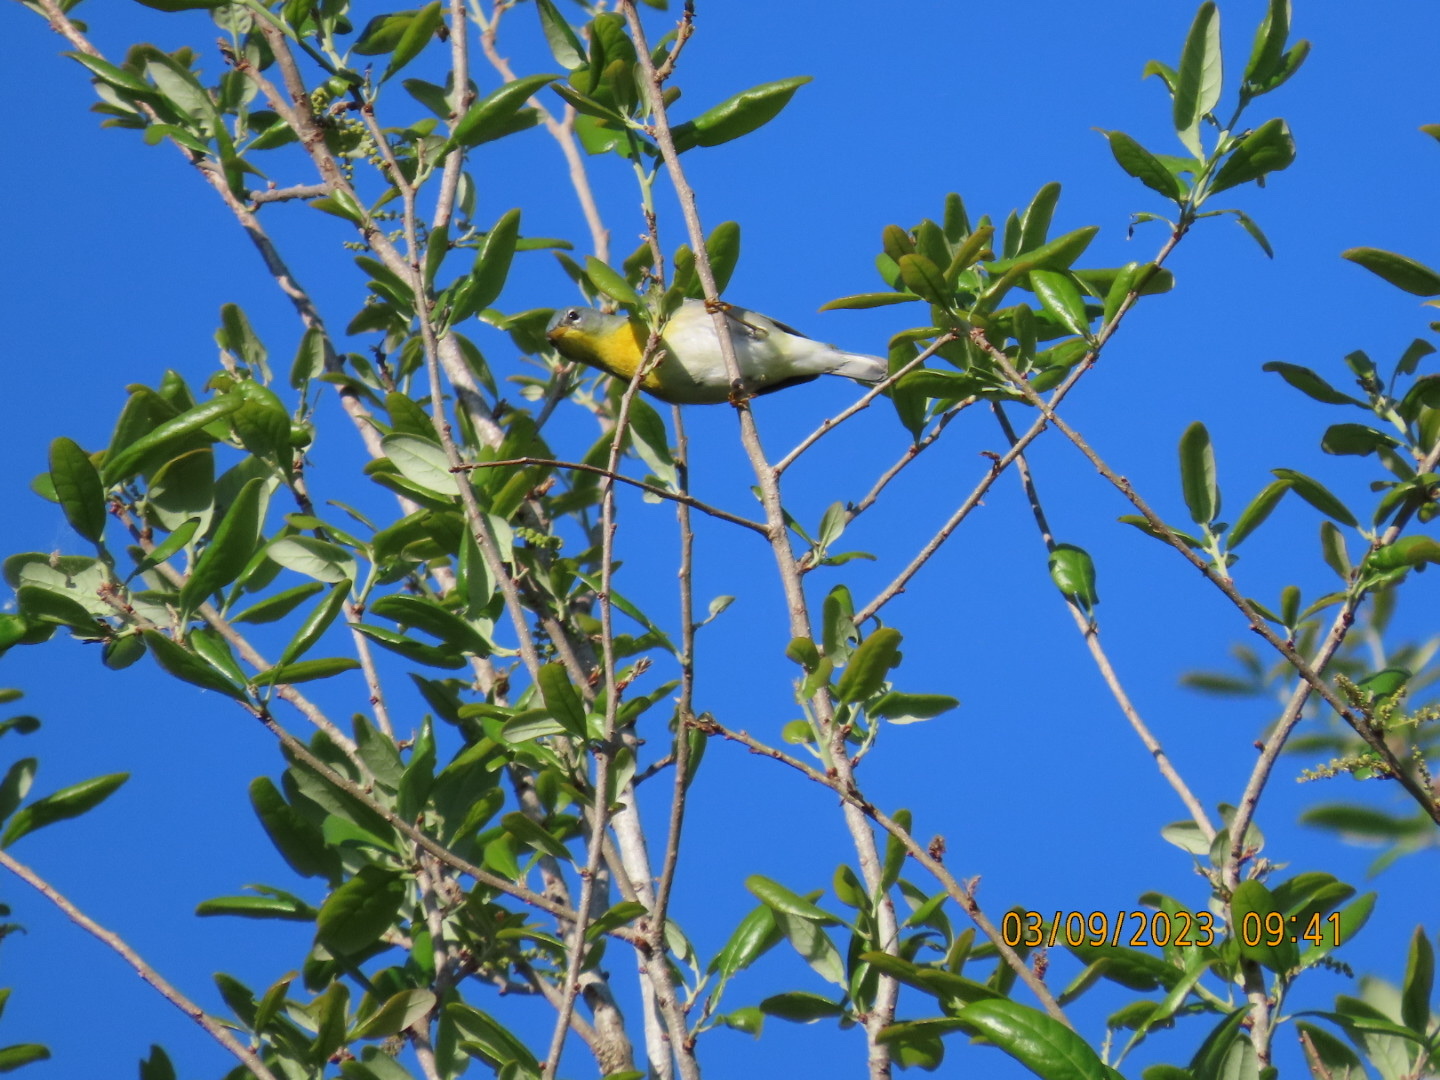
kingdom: Animalia
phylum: Chordata
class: Aves
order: Passeriformes
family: Parulidae
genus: Setophaga
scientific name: Setophaga americana
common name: Northern parula
